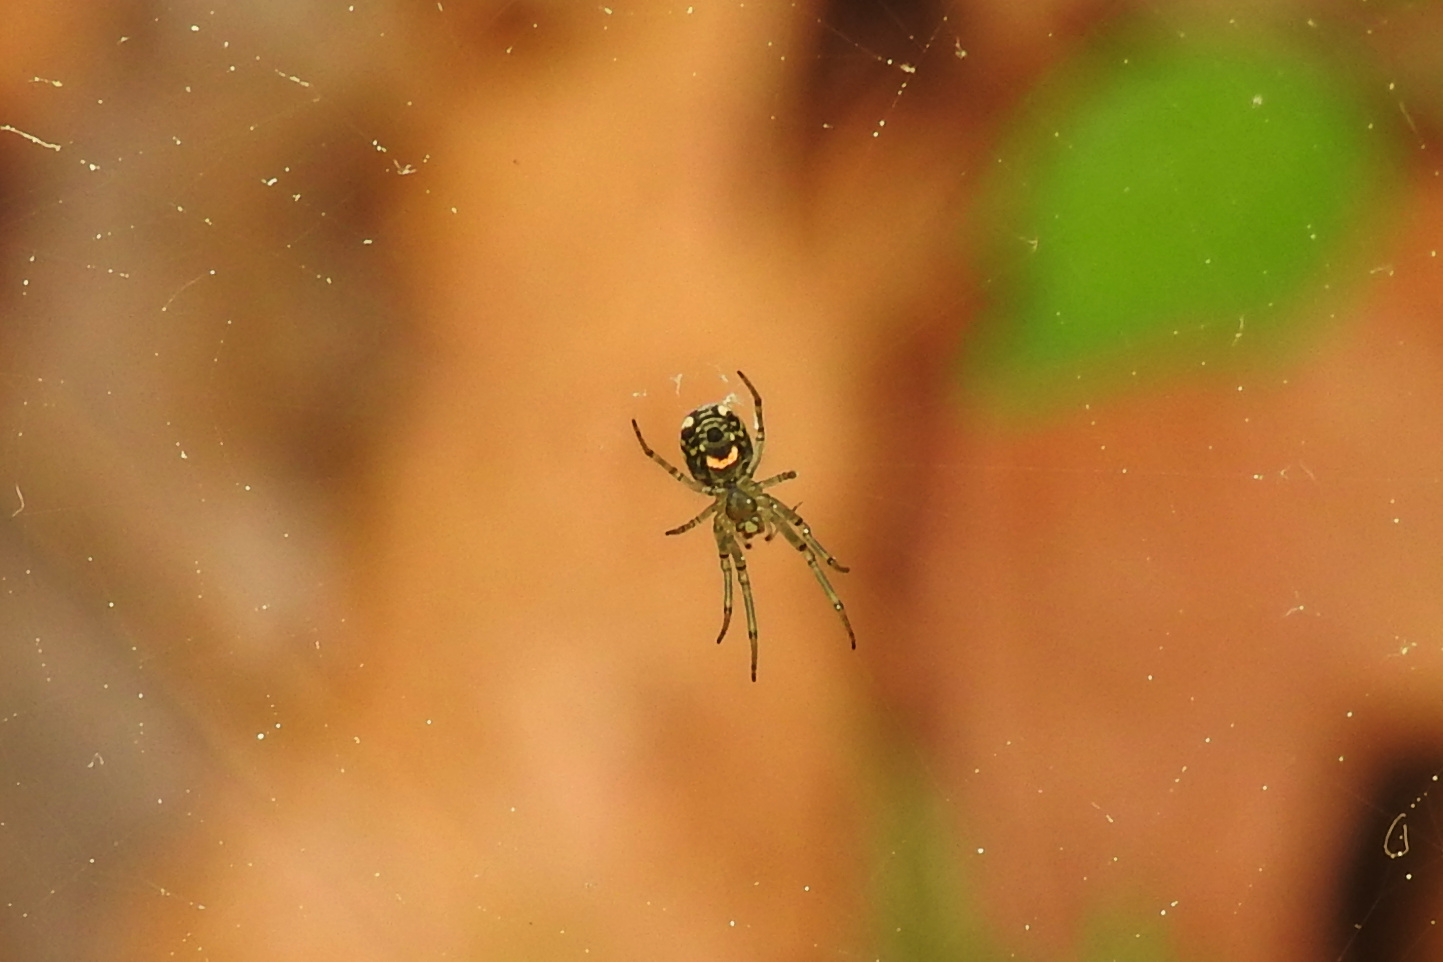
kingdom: Animalia
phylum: Arthropoda
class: Arachnida
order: Araneae
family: Tetragnathidae
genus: Leucauge
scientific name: Leucauge venusta
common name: Longjawed orb weavers
